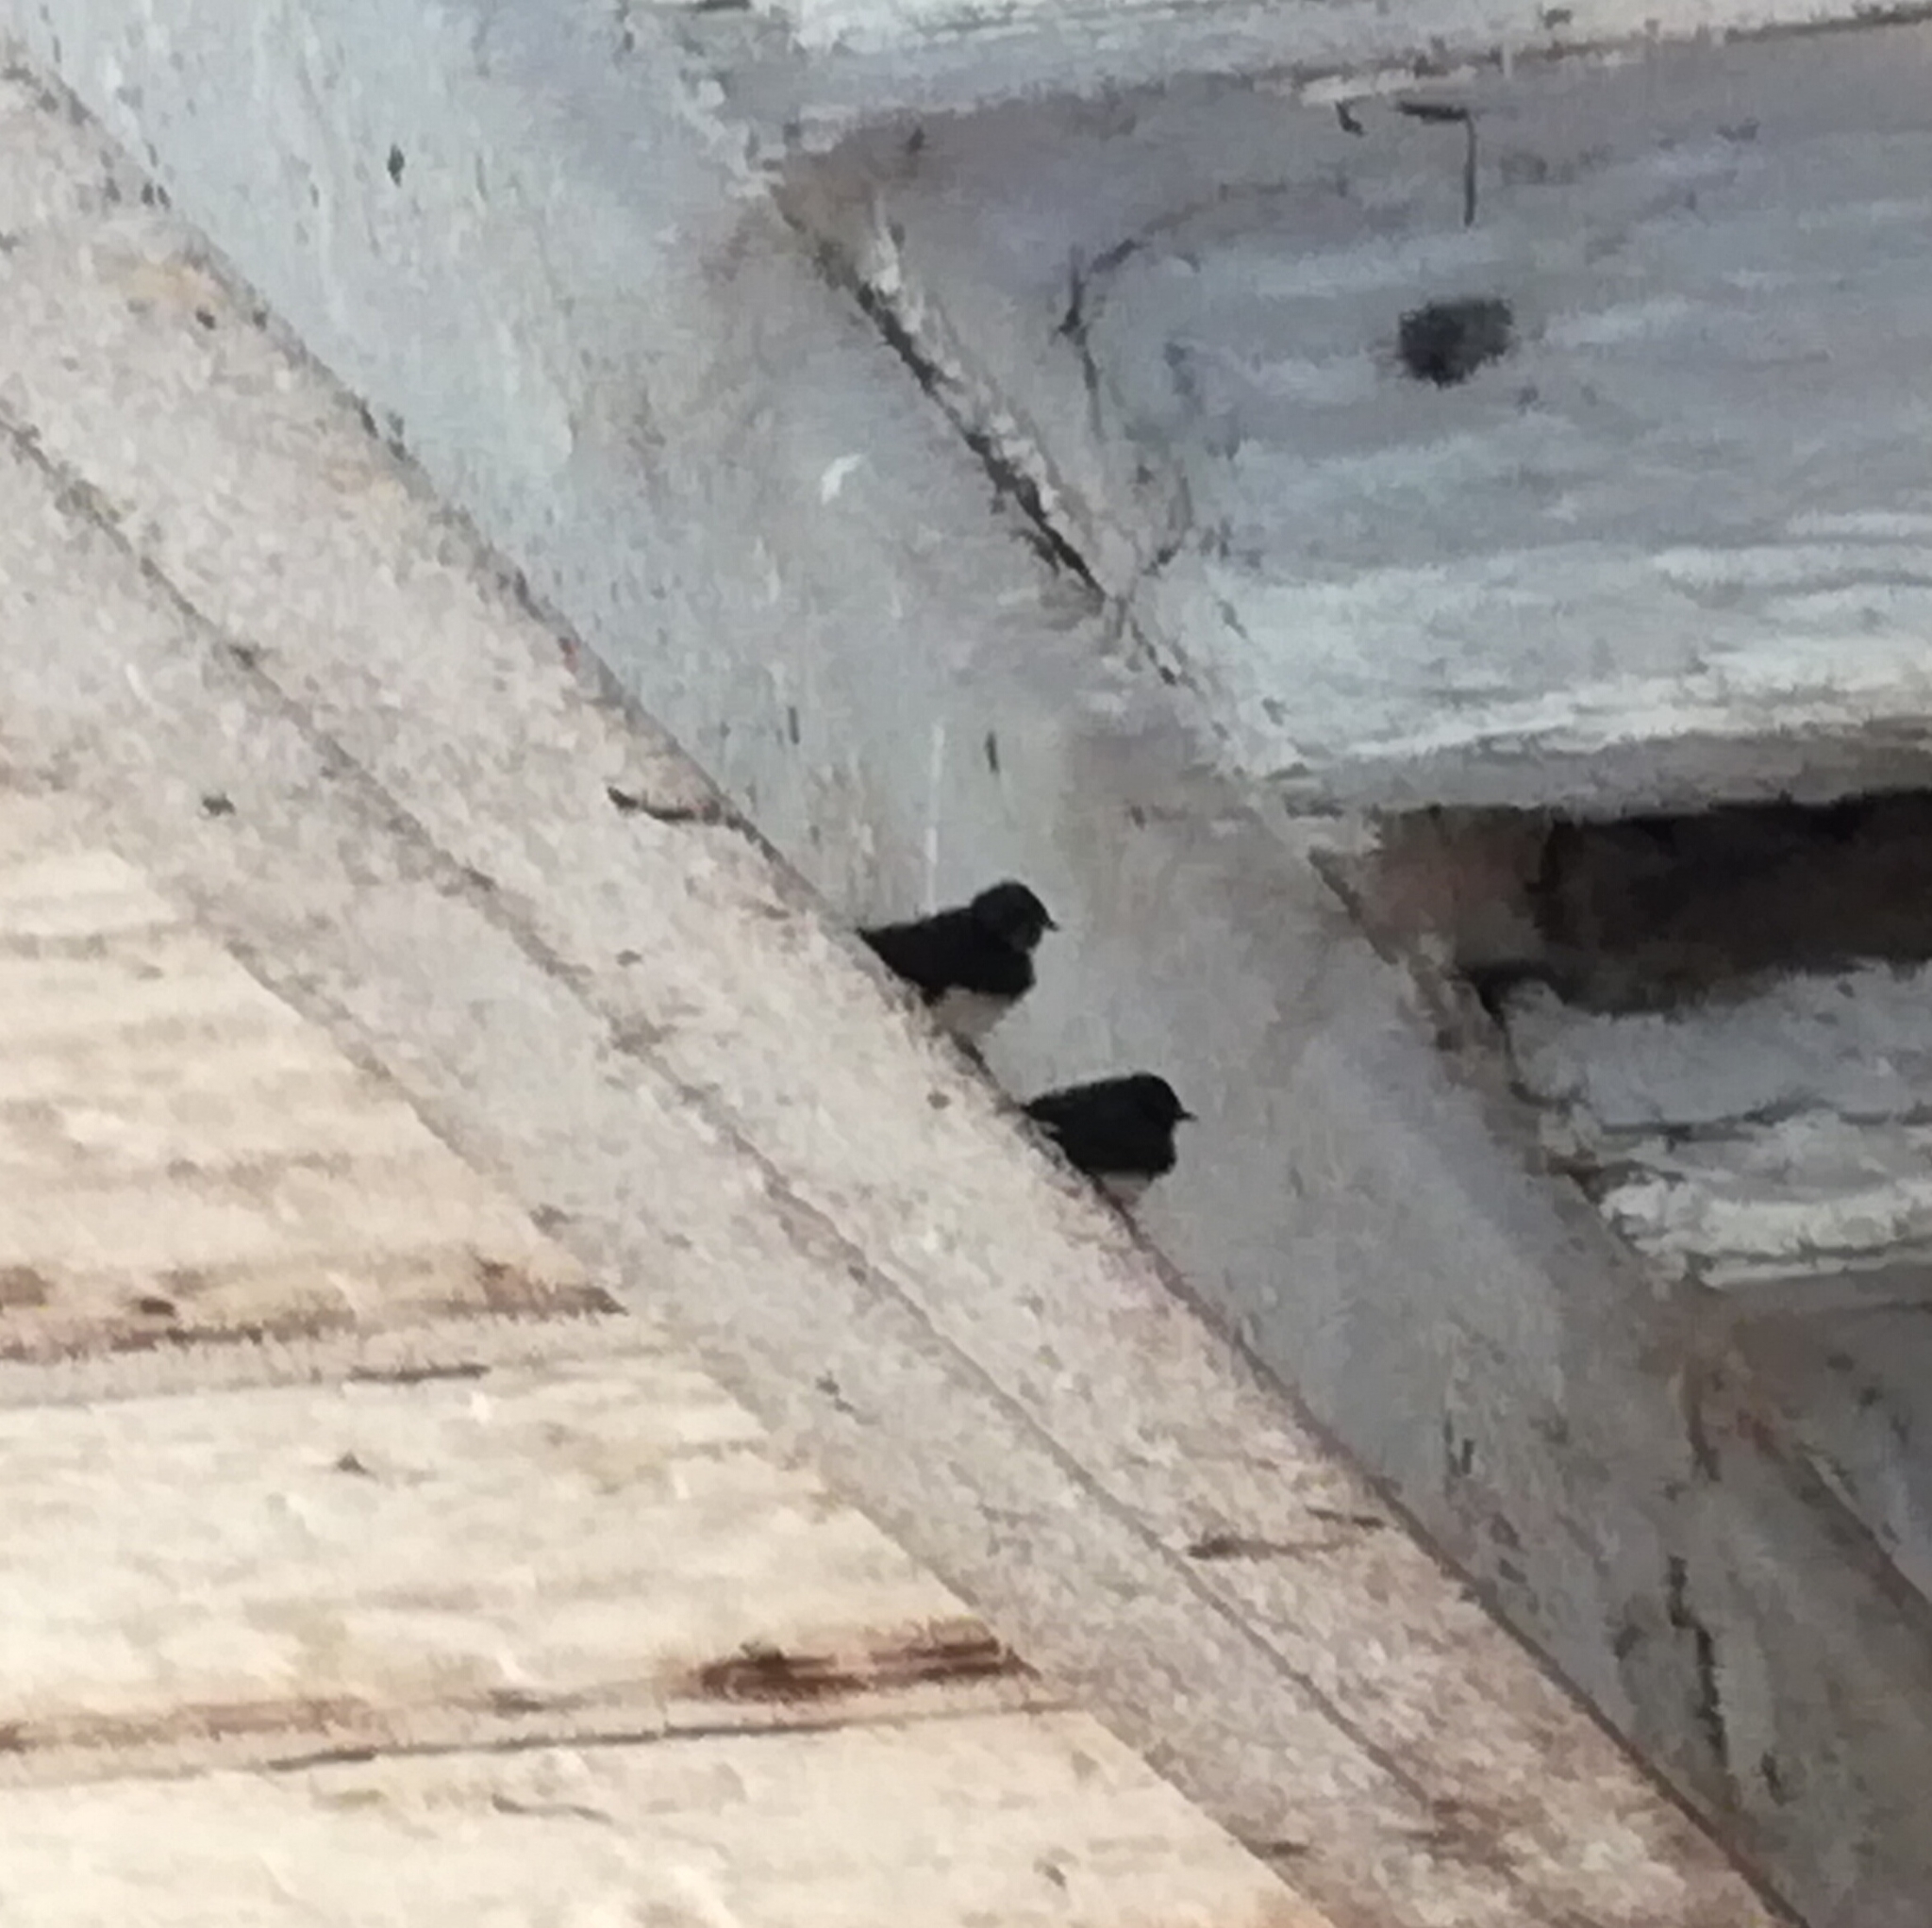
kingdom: Animalia
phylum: Chordata
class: Aves
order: Passeriformes
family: Hirundinidae
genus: Hirundo
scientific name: Hirundo rustica
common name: Barn swallow
